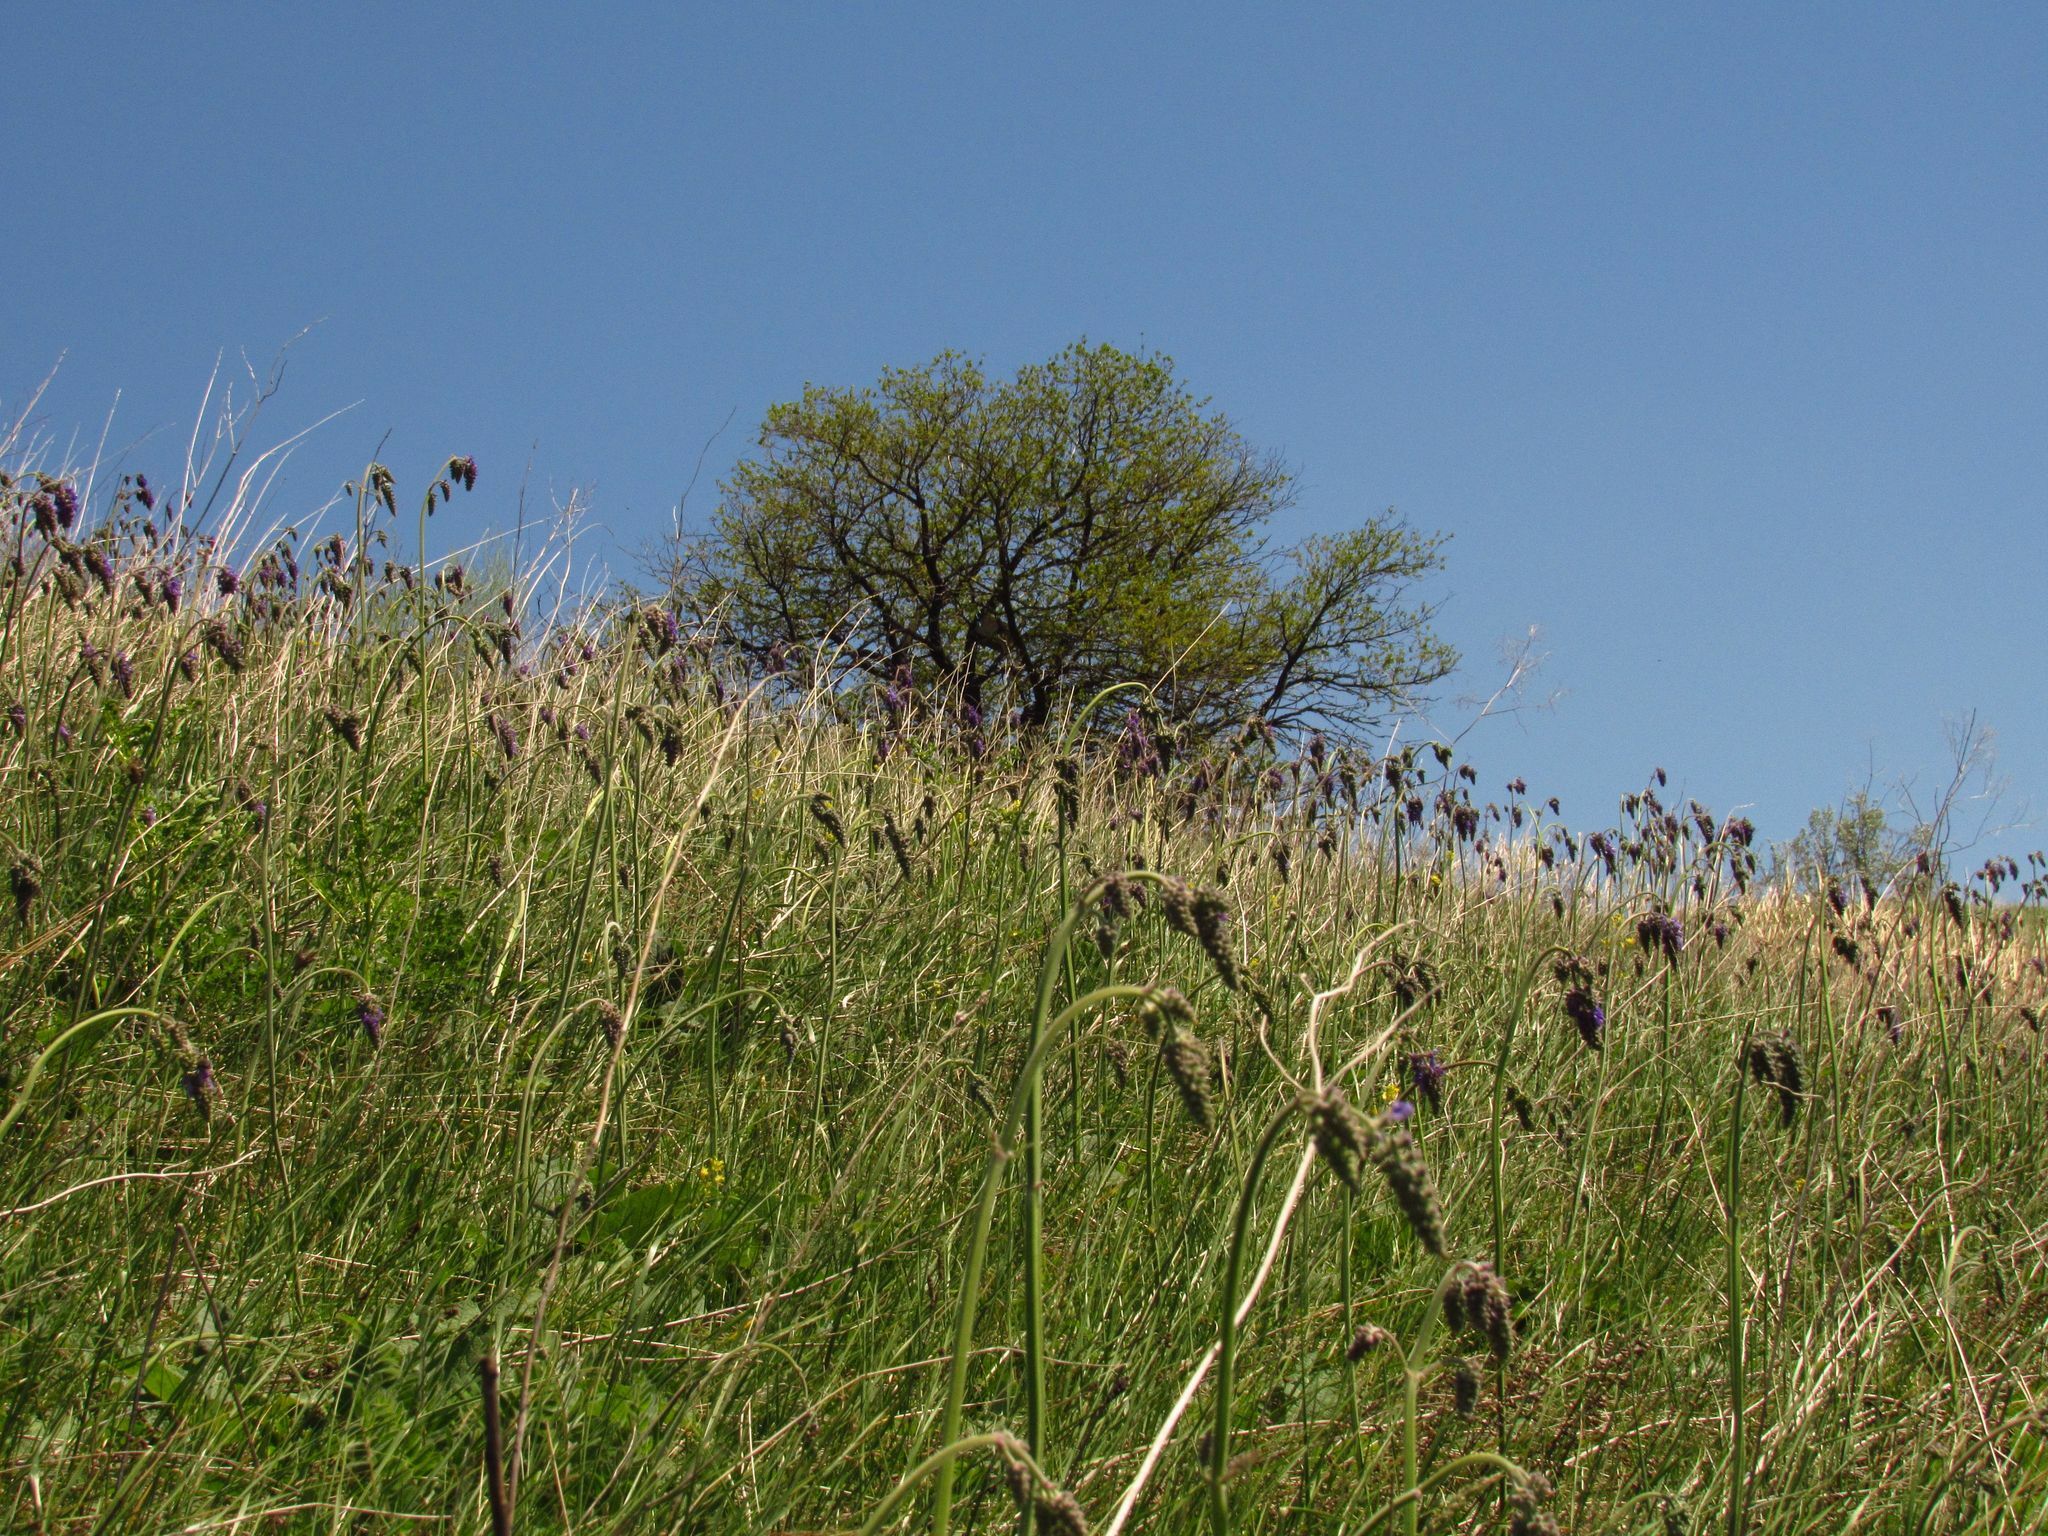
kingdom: Plantae
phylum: Tracheophyta
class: Magnoliopsida
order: Lamiales
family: Lamiaceae
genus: Salvia
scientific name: Salvia nutans
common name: Nodding sage
